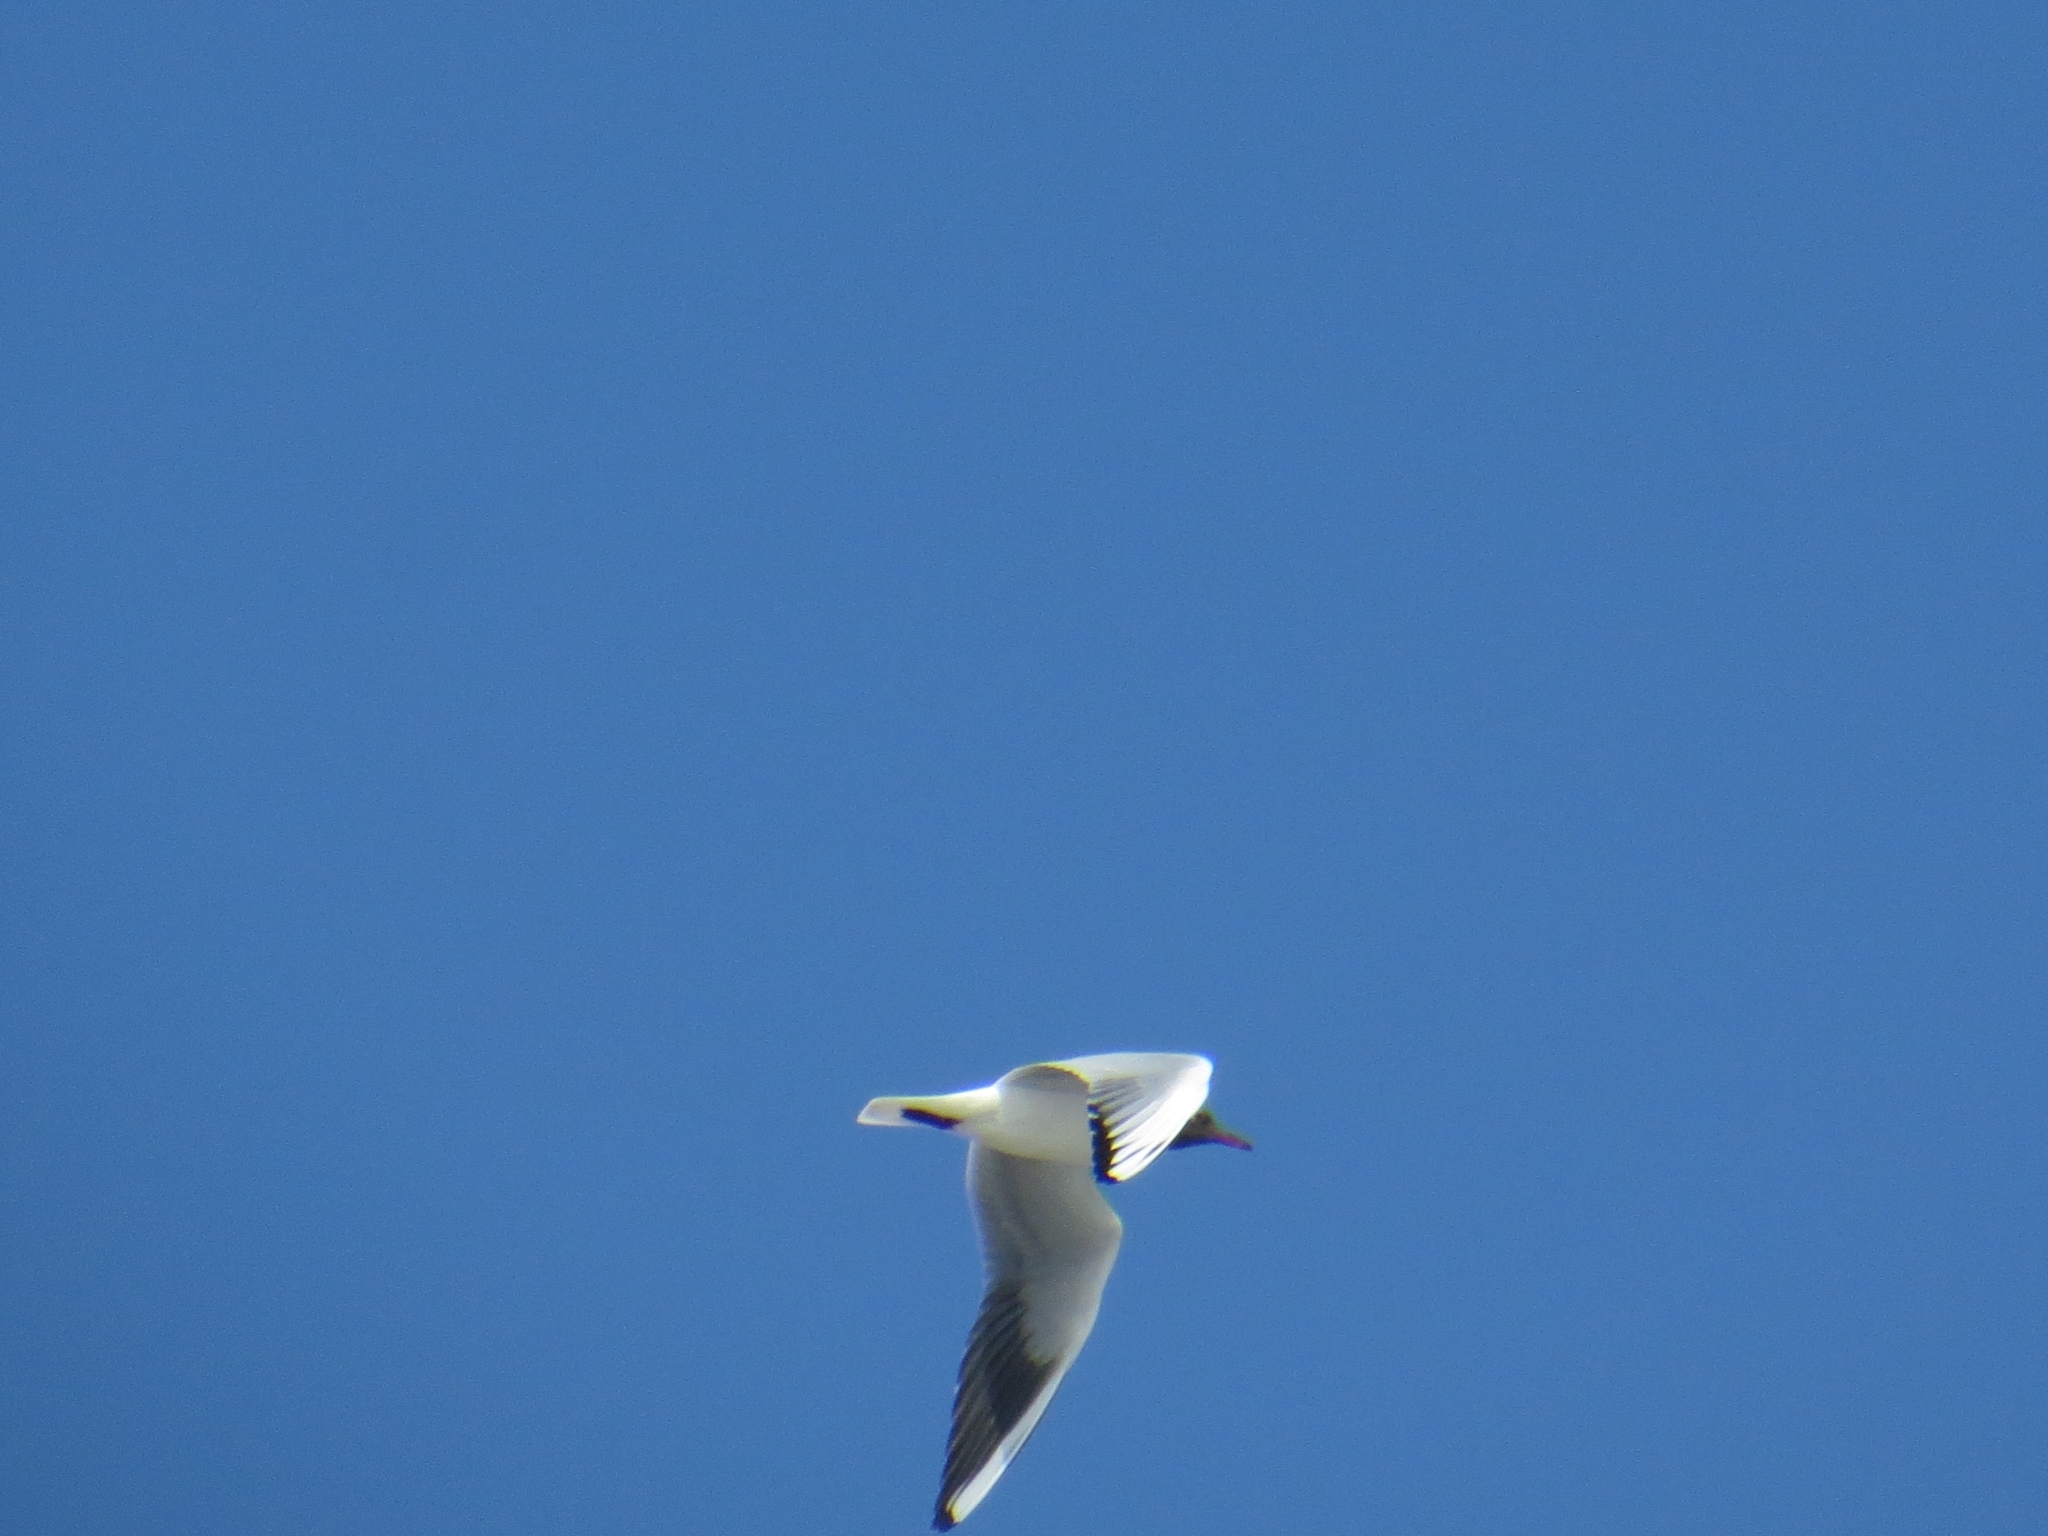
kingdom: Animalia
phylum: Chordata
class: Aves
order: Charadriiformes
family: Laridae
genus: Chroicocephalus
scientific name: Chroicocephalus ridibundus
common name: Black-headed gull
